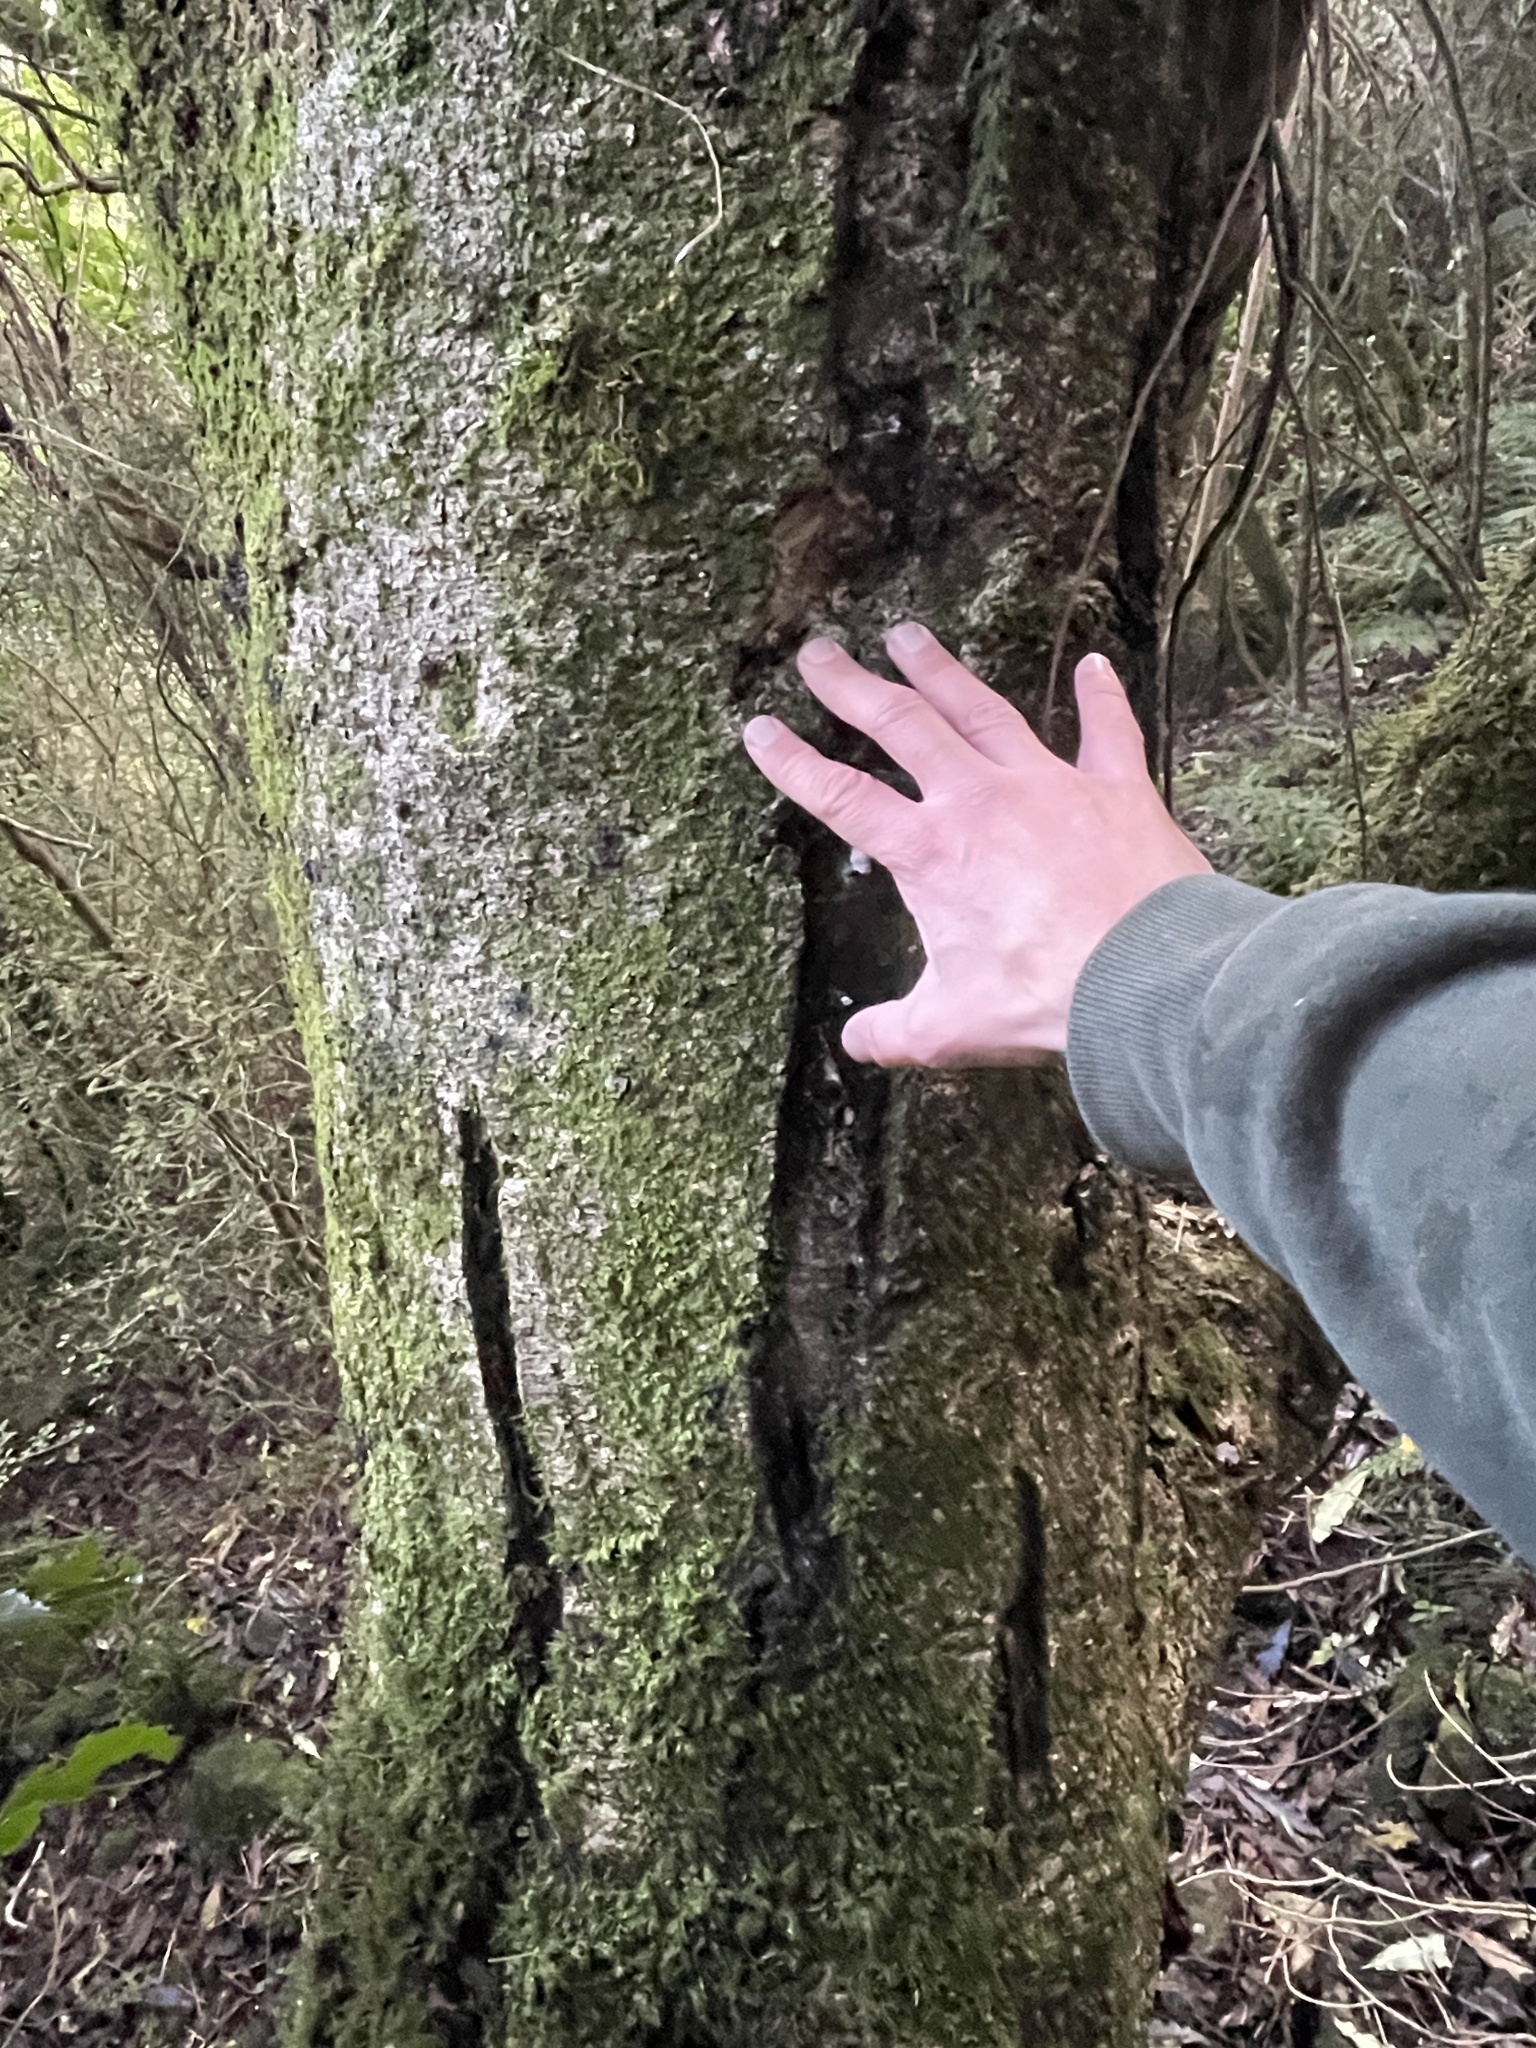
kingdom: Plantae
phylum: Tracheophyta
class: Magnoliopsida
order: Apiales
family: Pittosporaceae
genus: Pittosporum
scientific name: Pittosporum eugenioides
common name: Lemonwood
